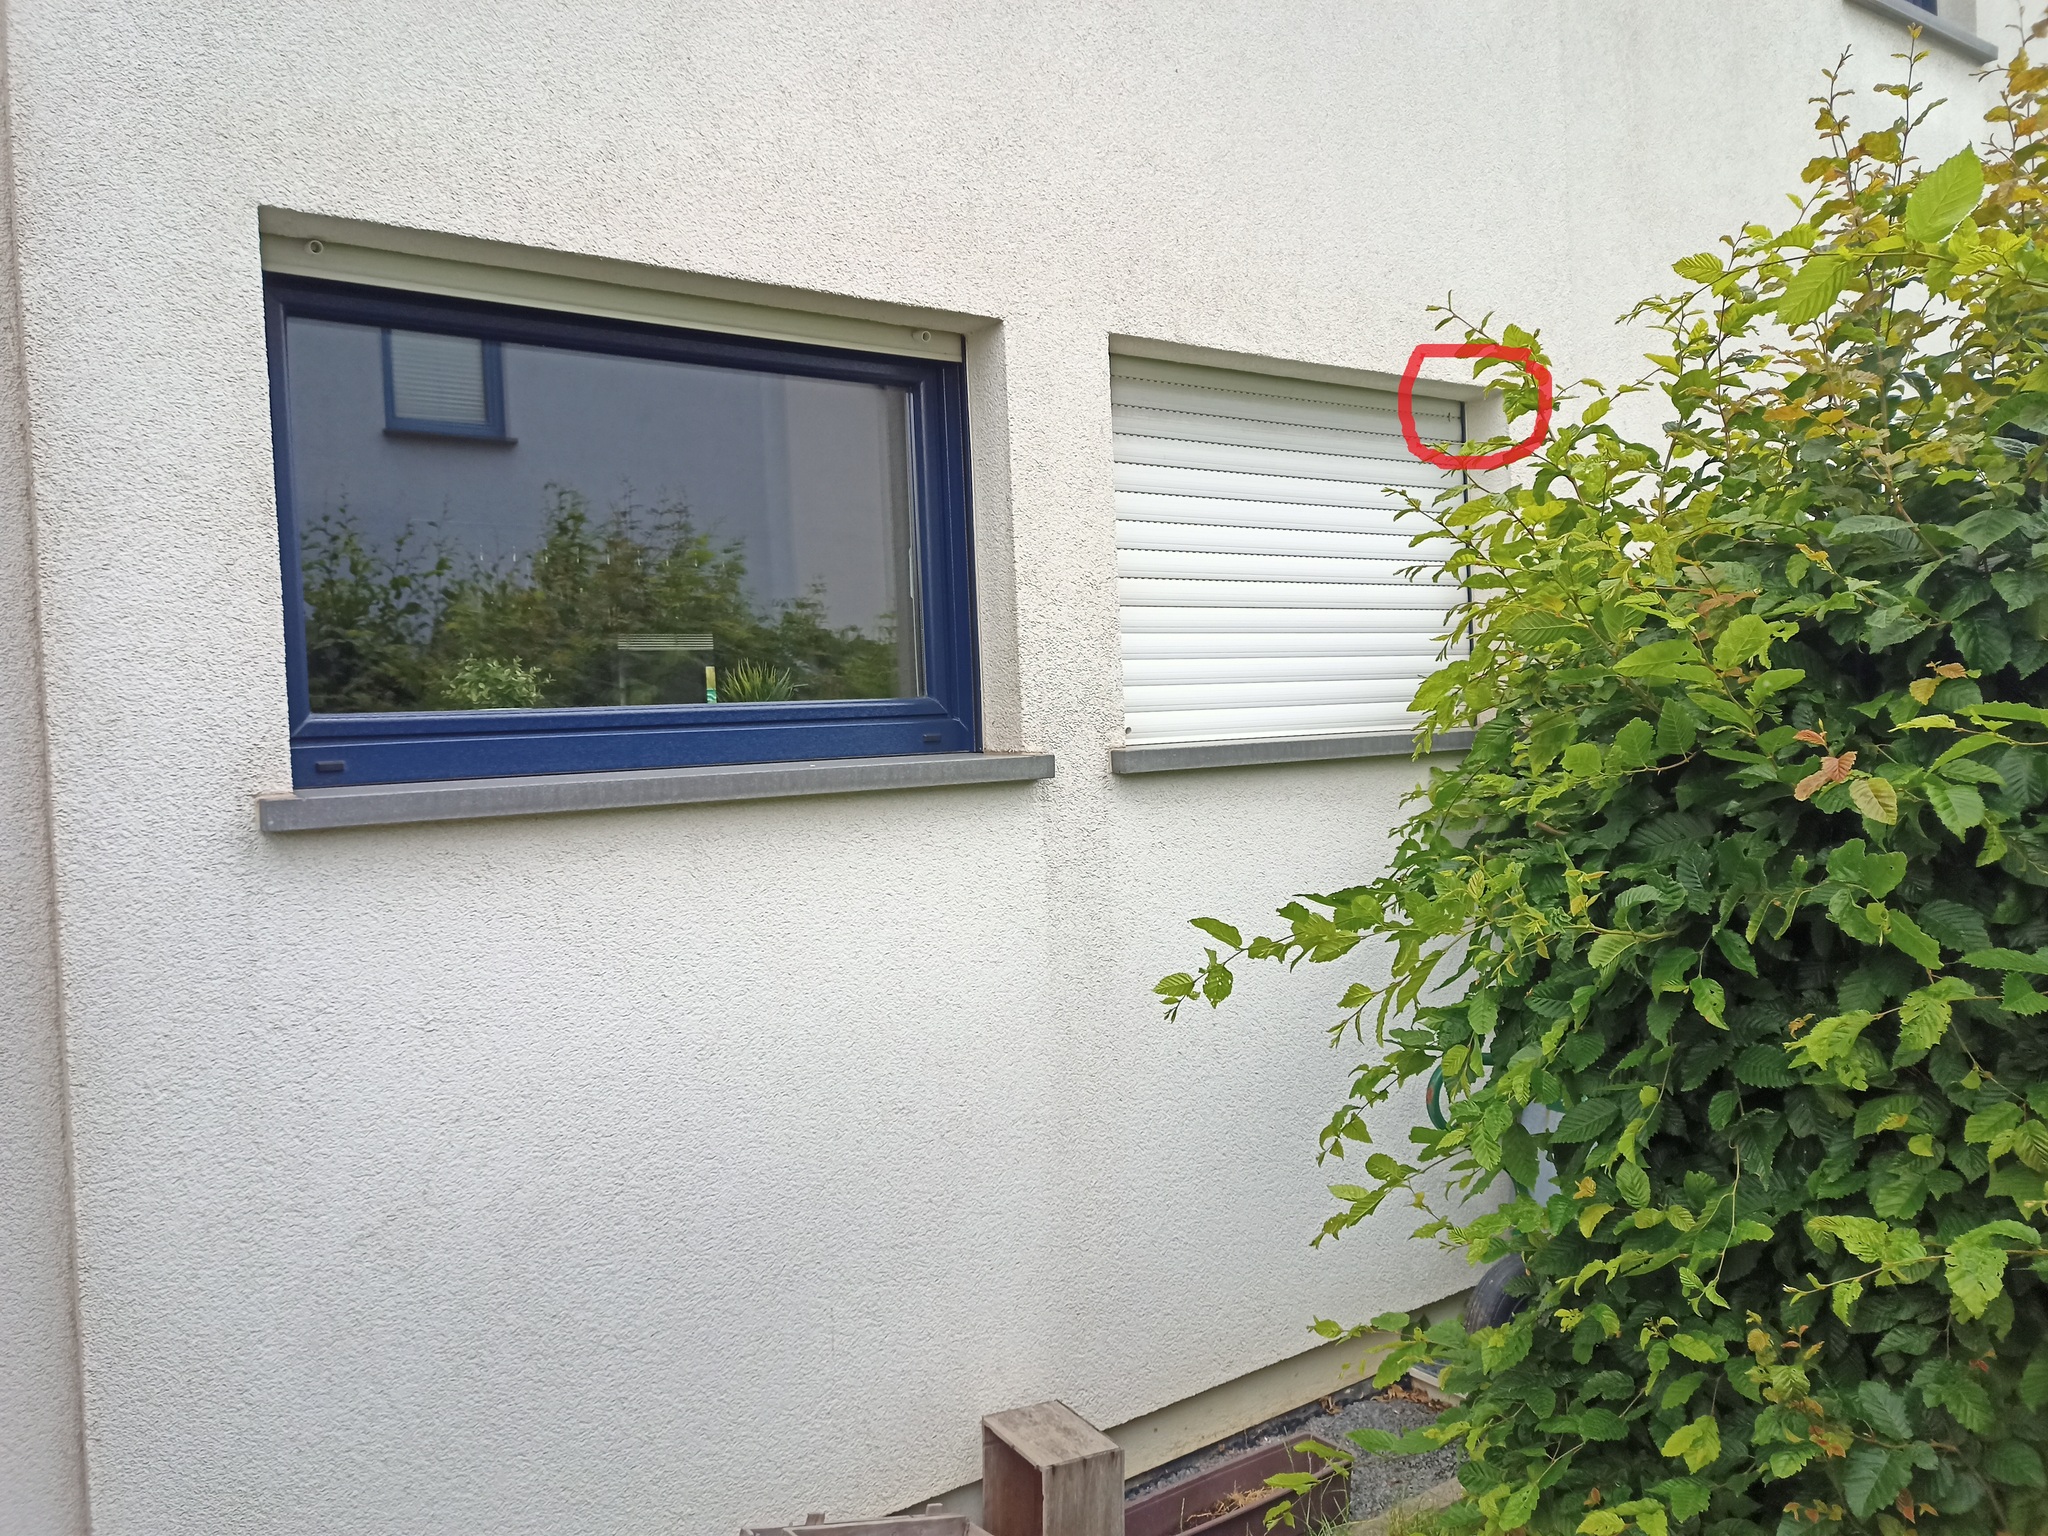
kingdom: Animalia
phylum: Arthropoda
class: Insecta
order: Hymenoptera
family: Vespidae
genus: Vespula
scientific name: Vespula vulgaris
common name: Common wasp
